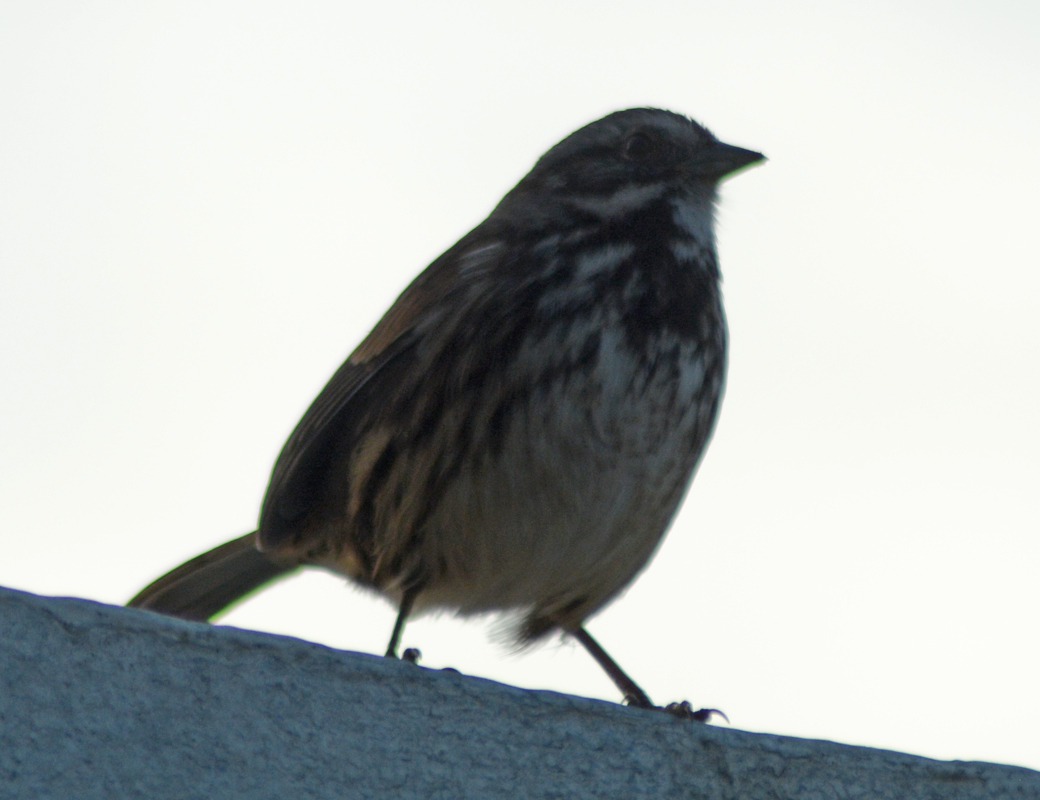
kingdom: Animalia
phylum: Chordata
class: Aves
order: Passeriformes
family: Passerellidae
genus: Melospiza
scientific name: Melospiza melodia
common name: Song sparrow
